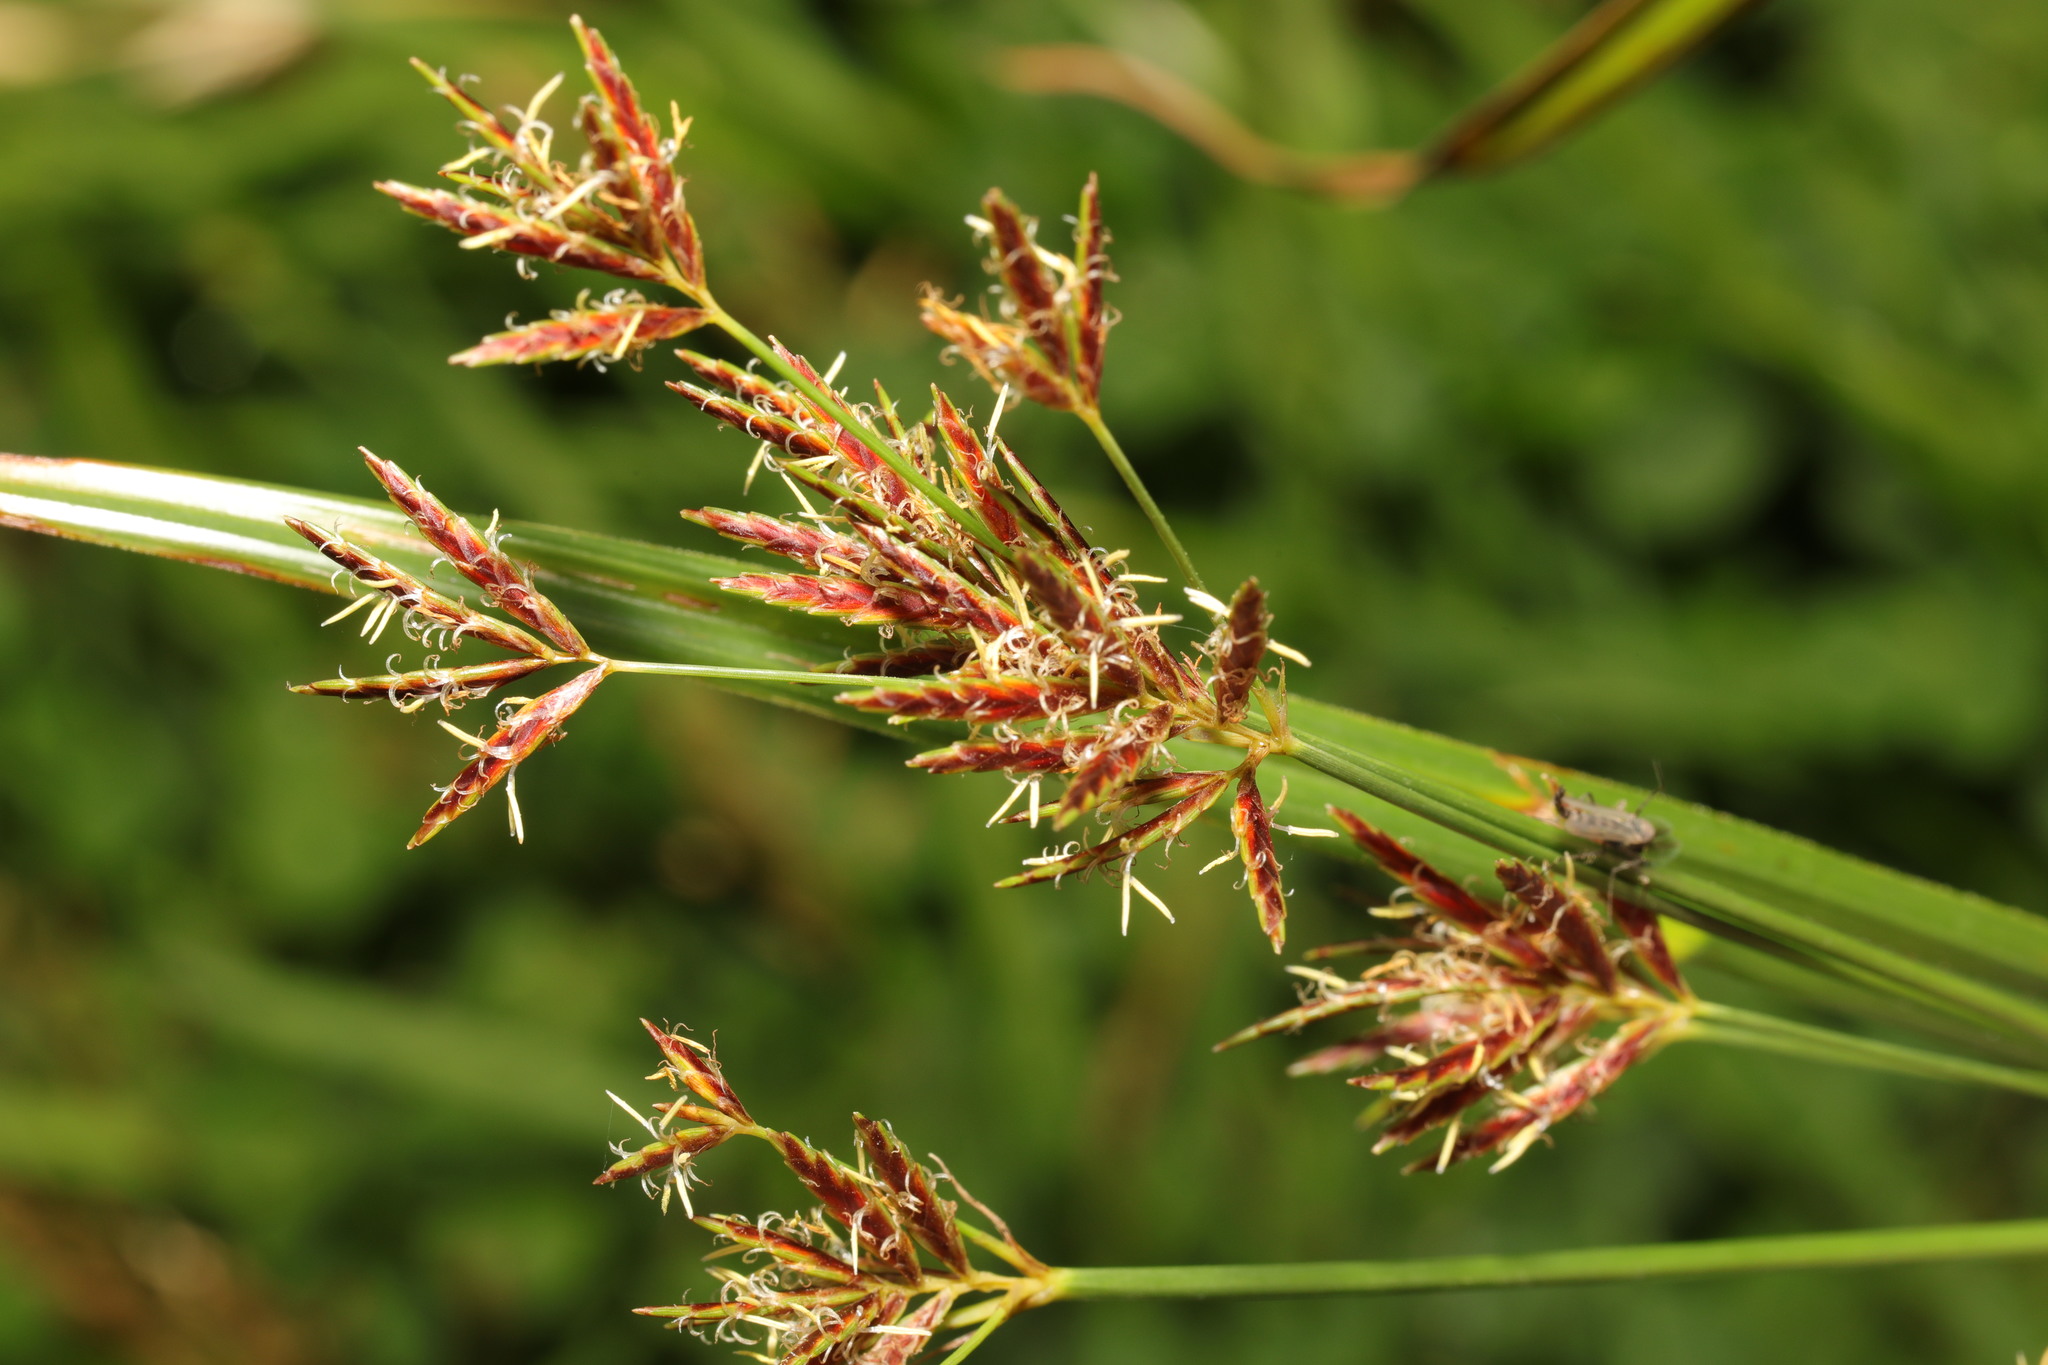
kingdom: Plantae
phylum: Tracheophyta
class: Liliopsida
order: Poales
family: Cyperaceae
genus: Cyperus
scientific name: Cyperus longus
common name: Galingale
